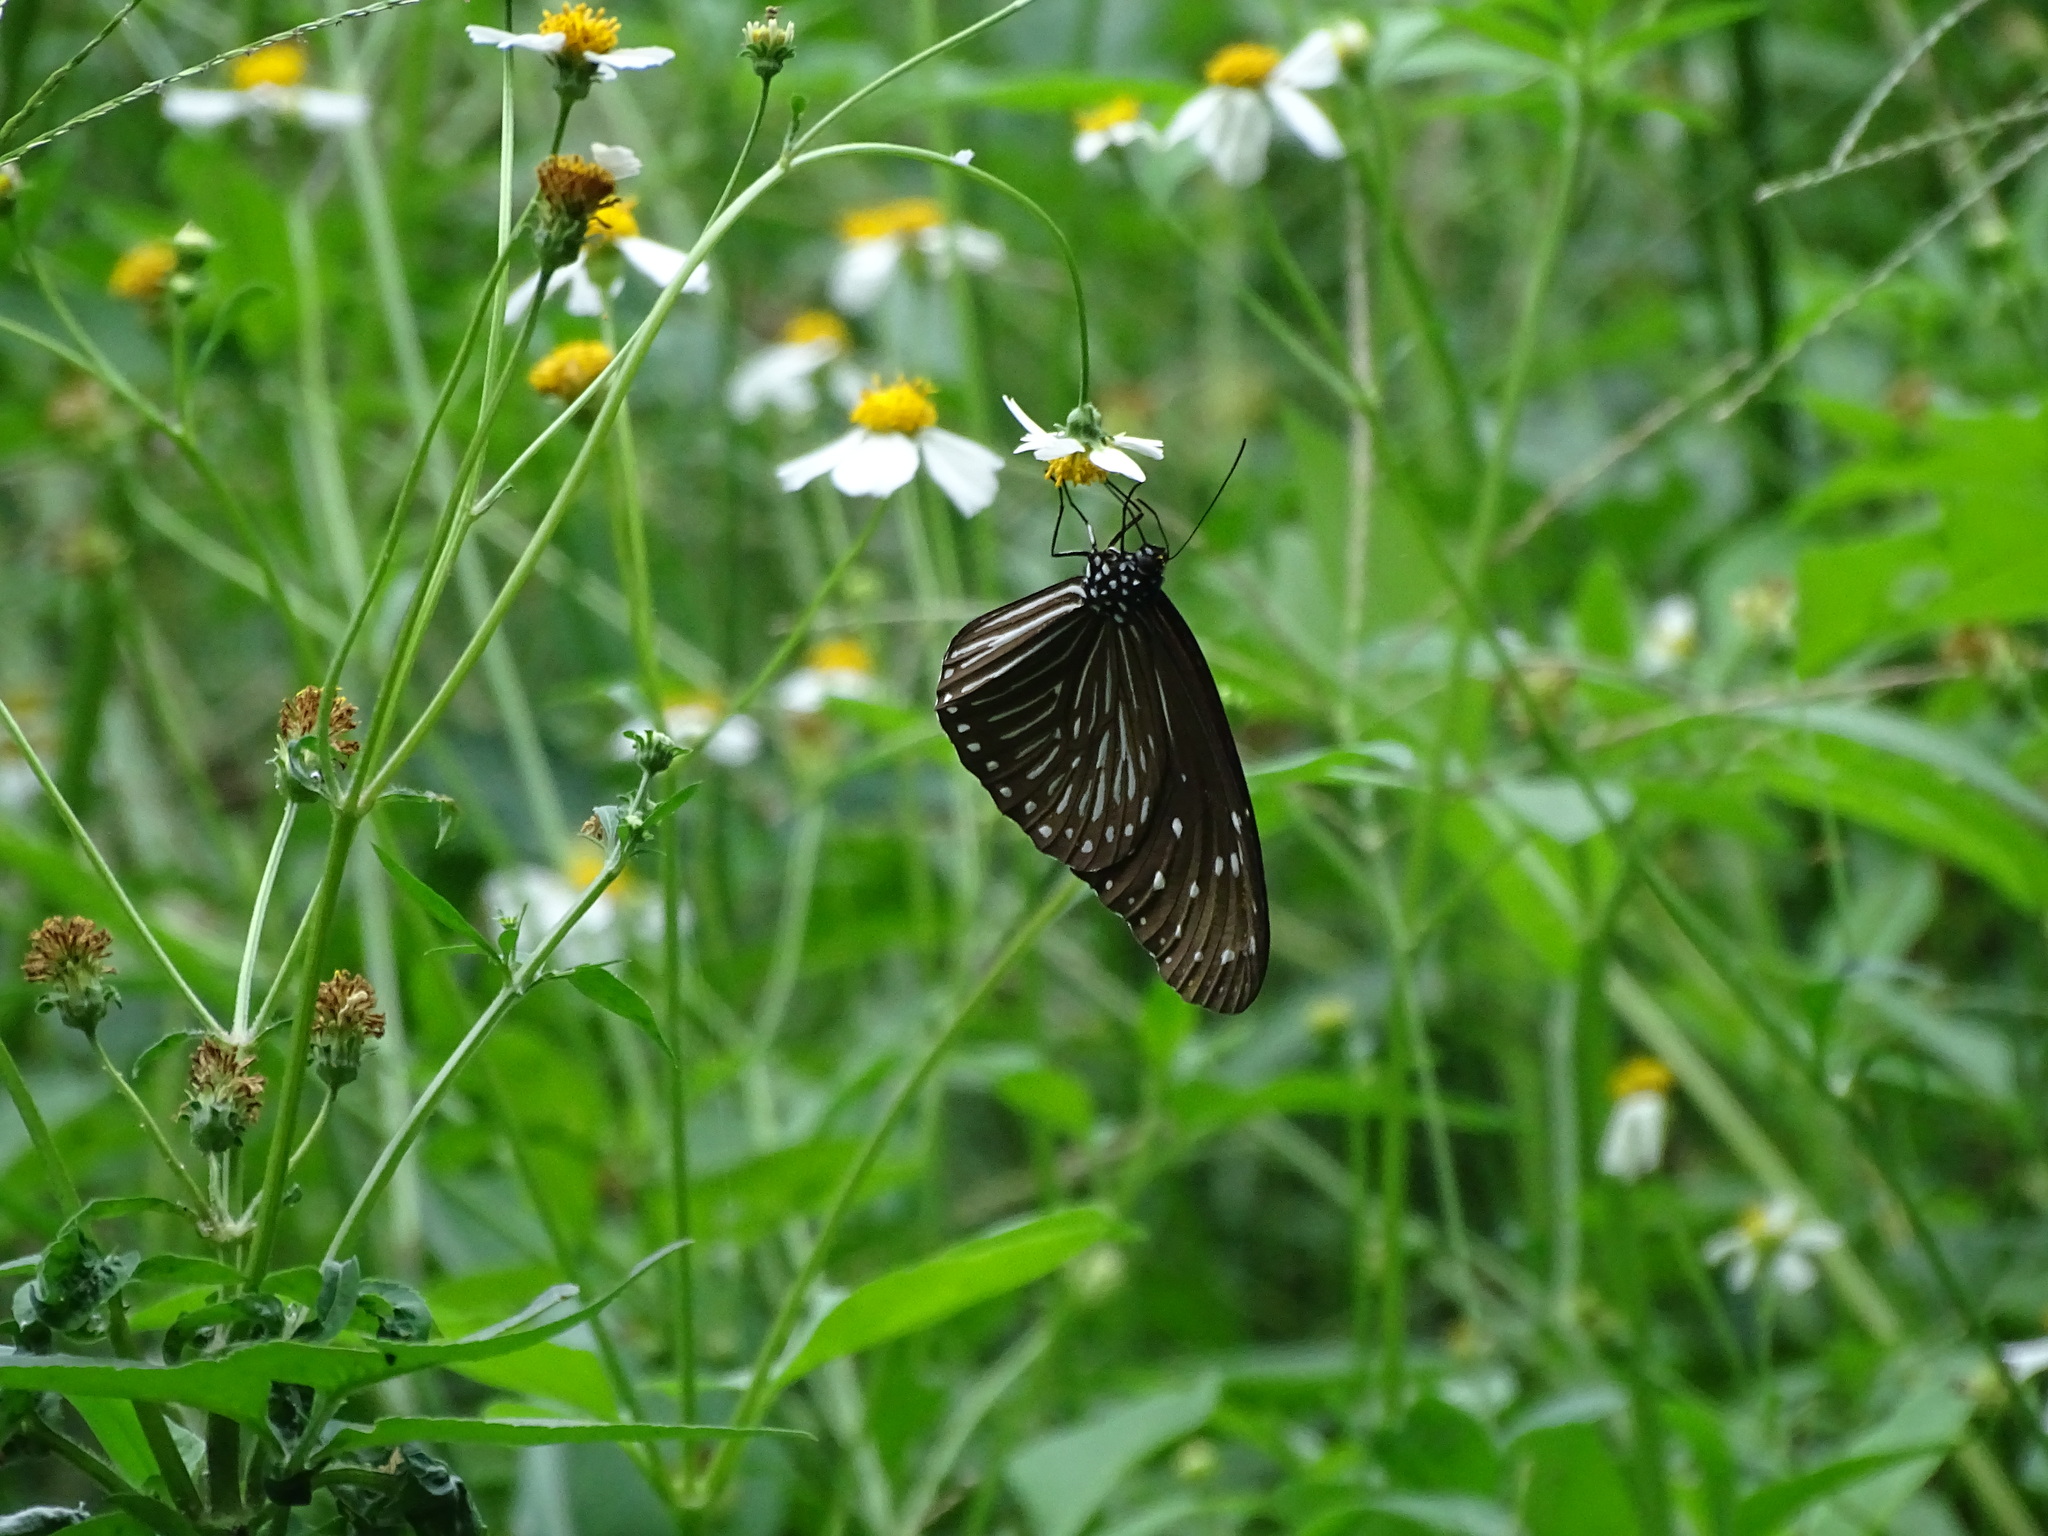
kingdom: Animalia
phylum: Arthropoda
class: Insecta
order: Lepidoptera
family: Nymphalidae
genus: Euploea
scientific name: Euploea mulciber
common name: Striped blue crow butterfly
